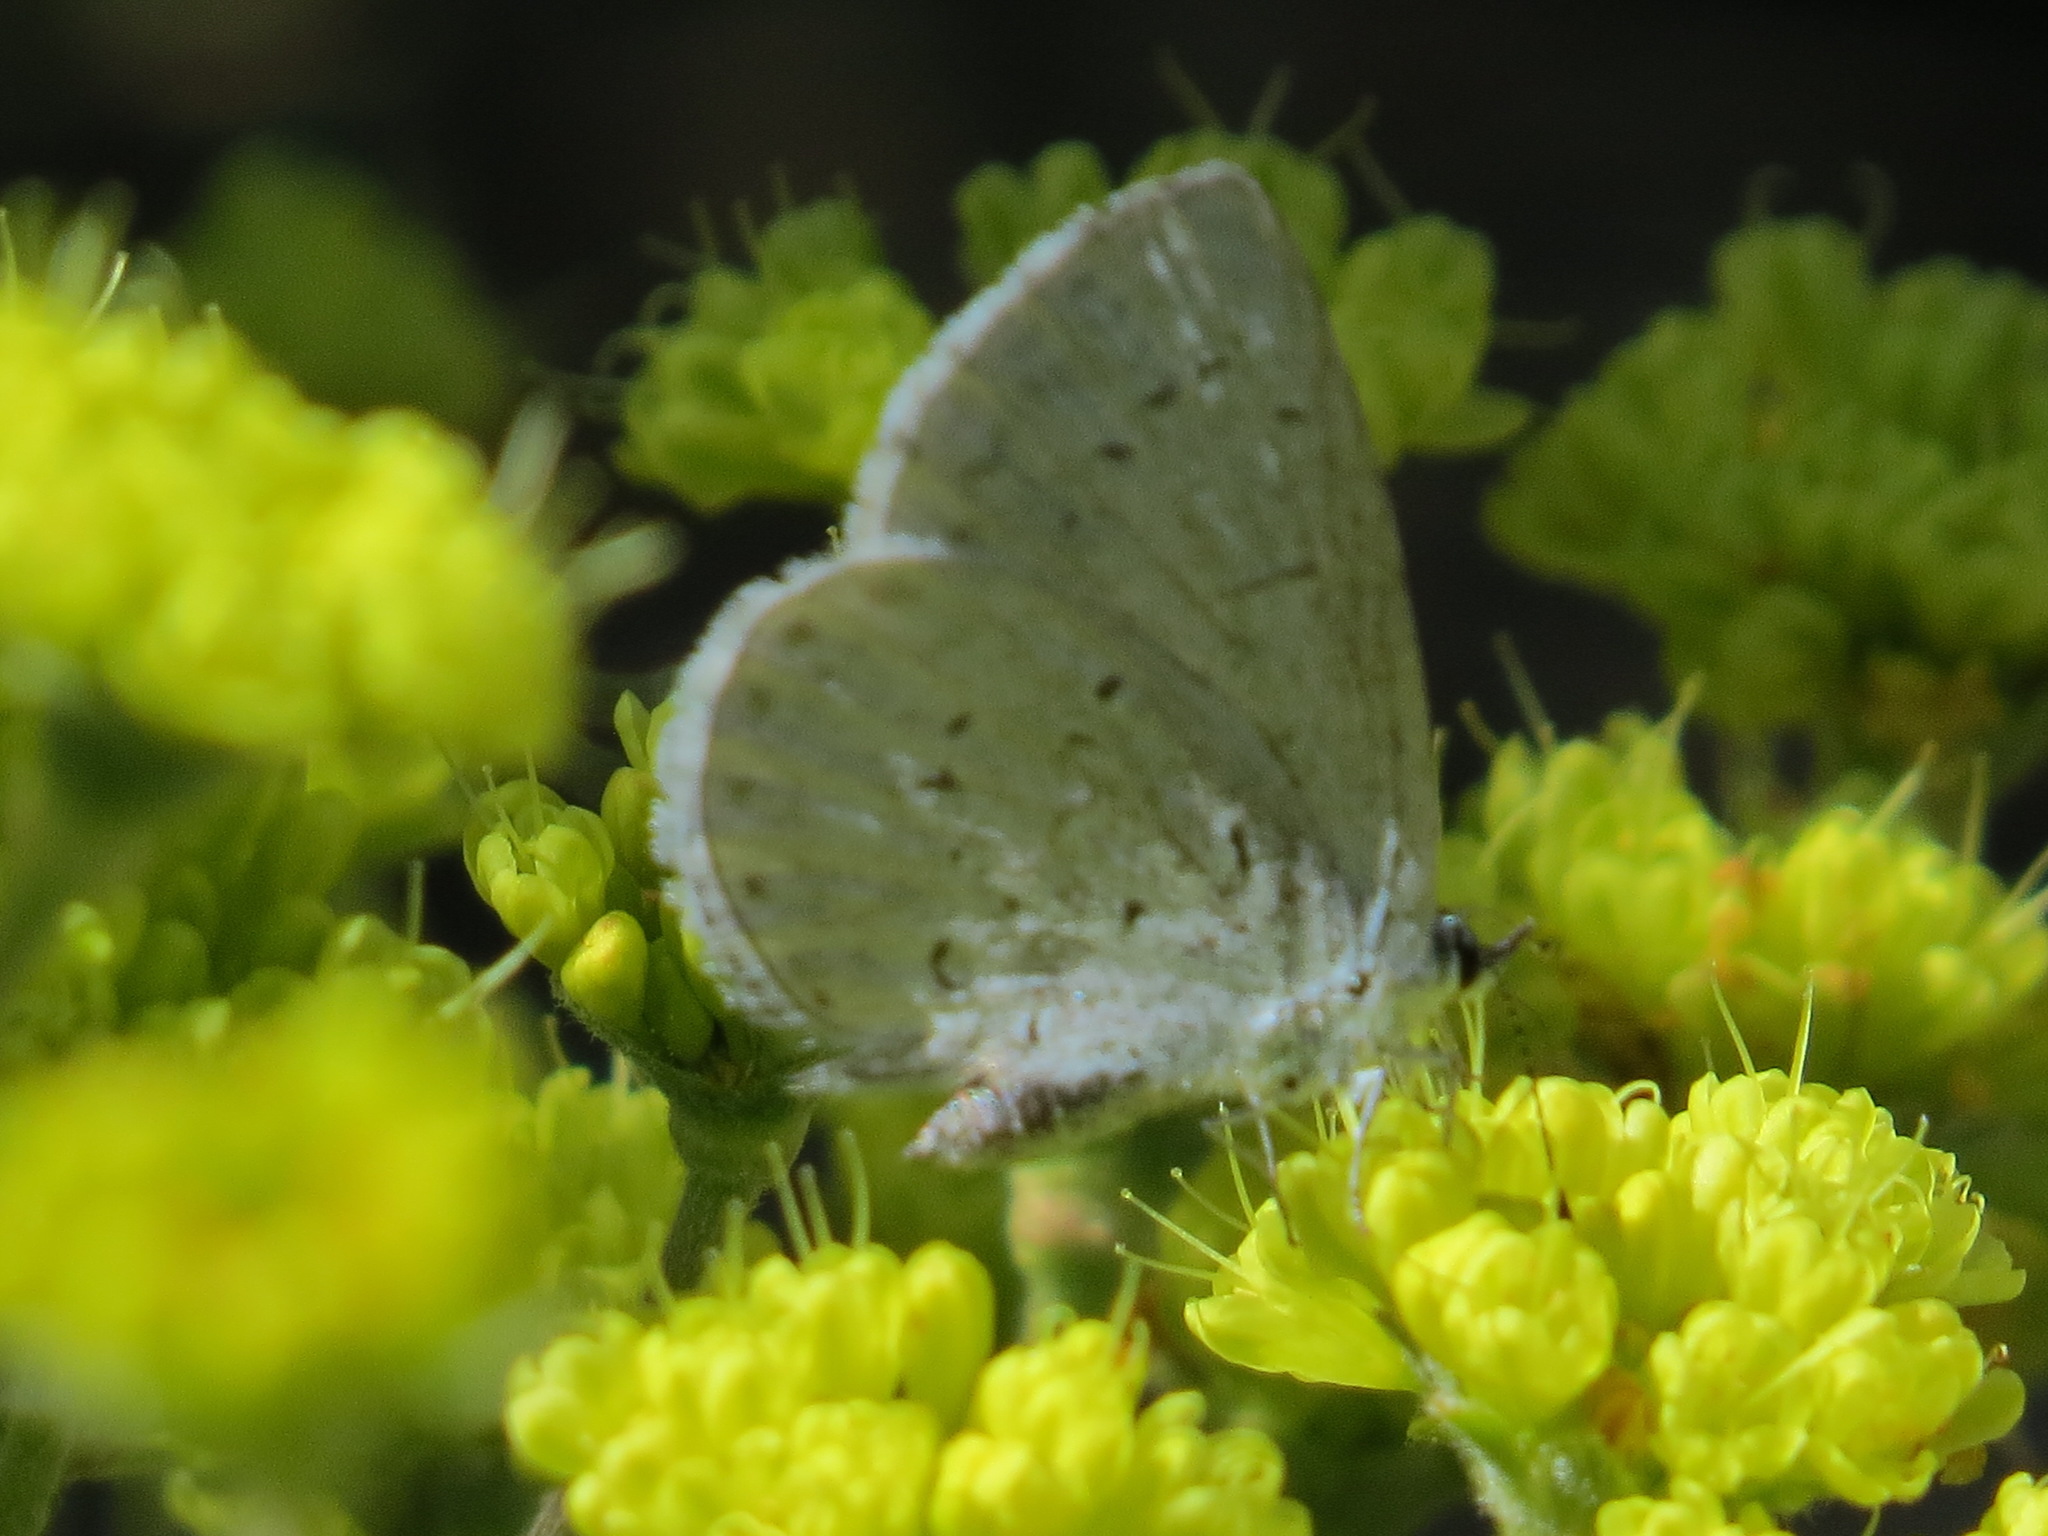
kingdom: Animalia
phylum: Arthropoda
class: Insecta
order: Lepidoptera
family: Lycaenidae
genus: Celastrina
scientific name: Celastrina ladon
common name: Spring azure
